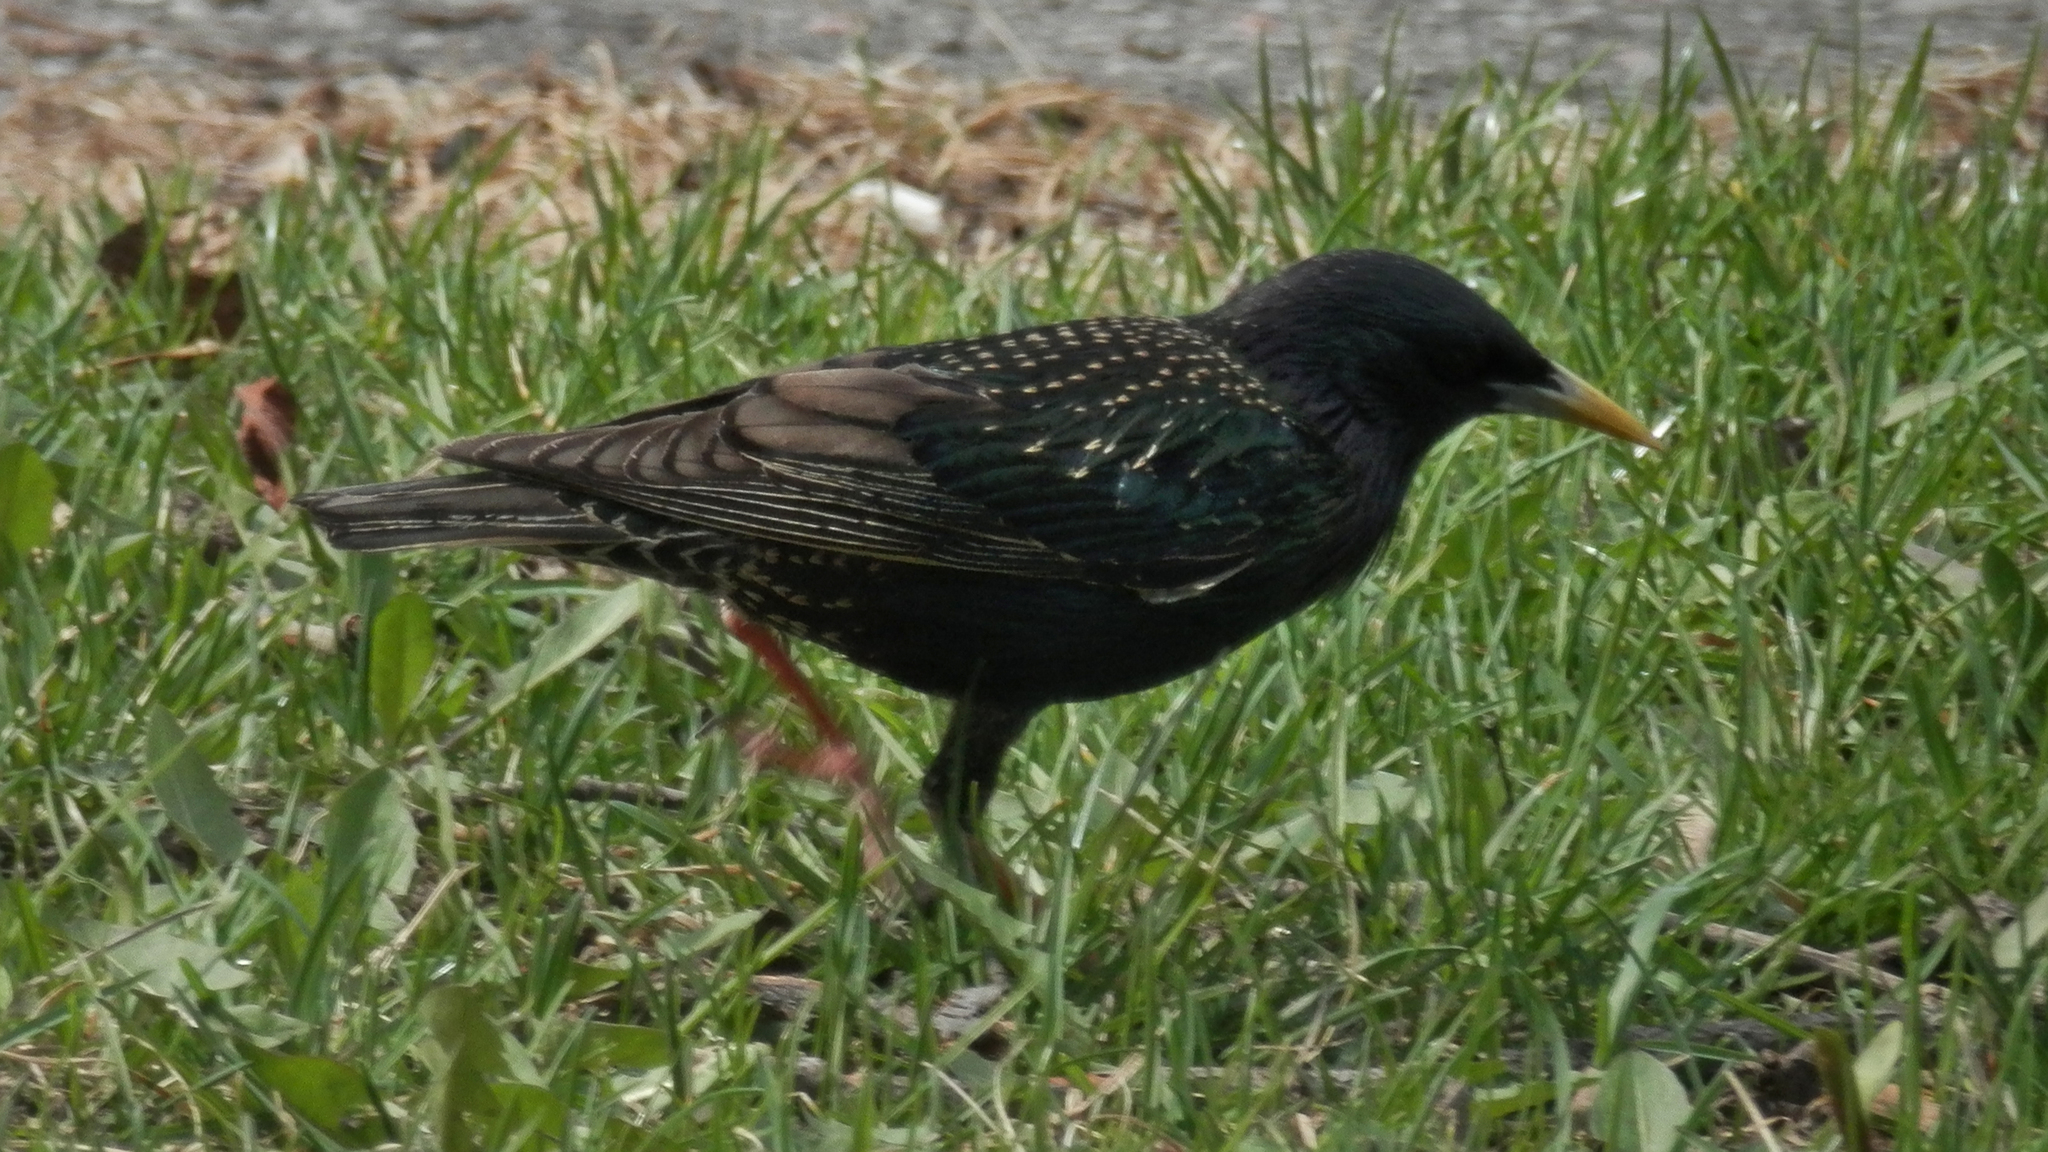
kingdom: Animalia
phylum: Chordata
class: Aves
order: Passeriformes
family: Sturnidae
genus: Sturnus
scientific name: Sturnus vulgaris
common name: Common starling
